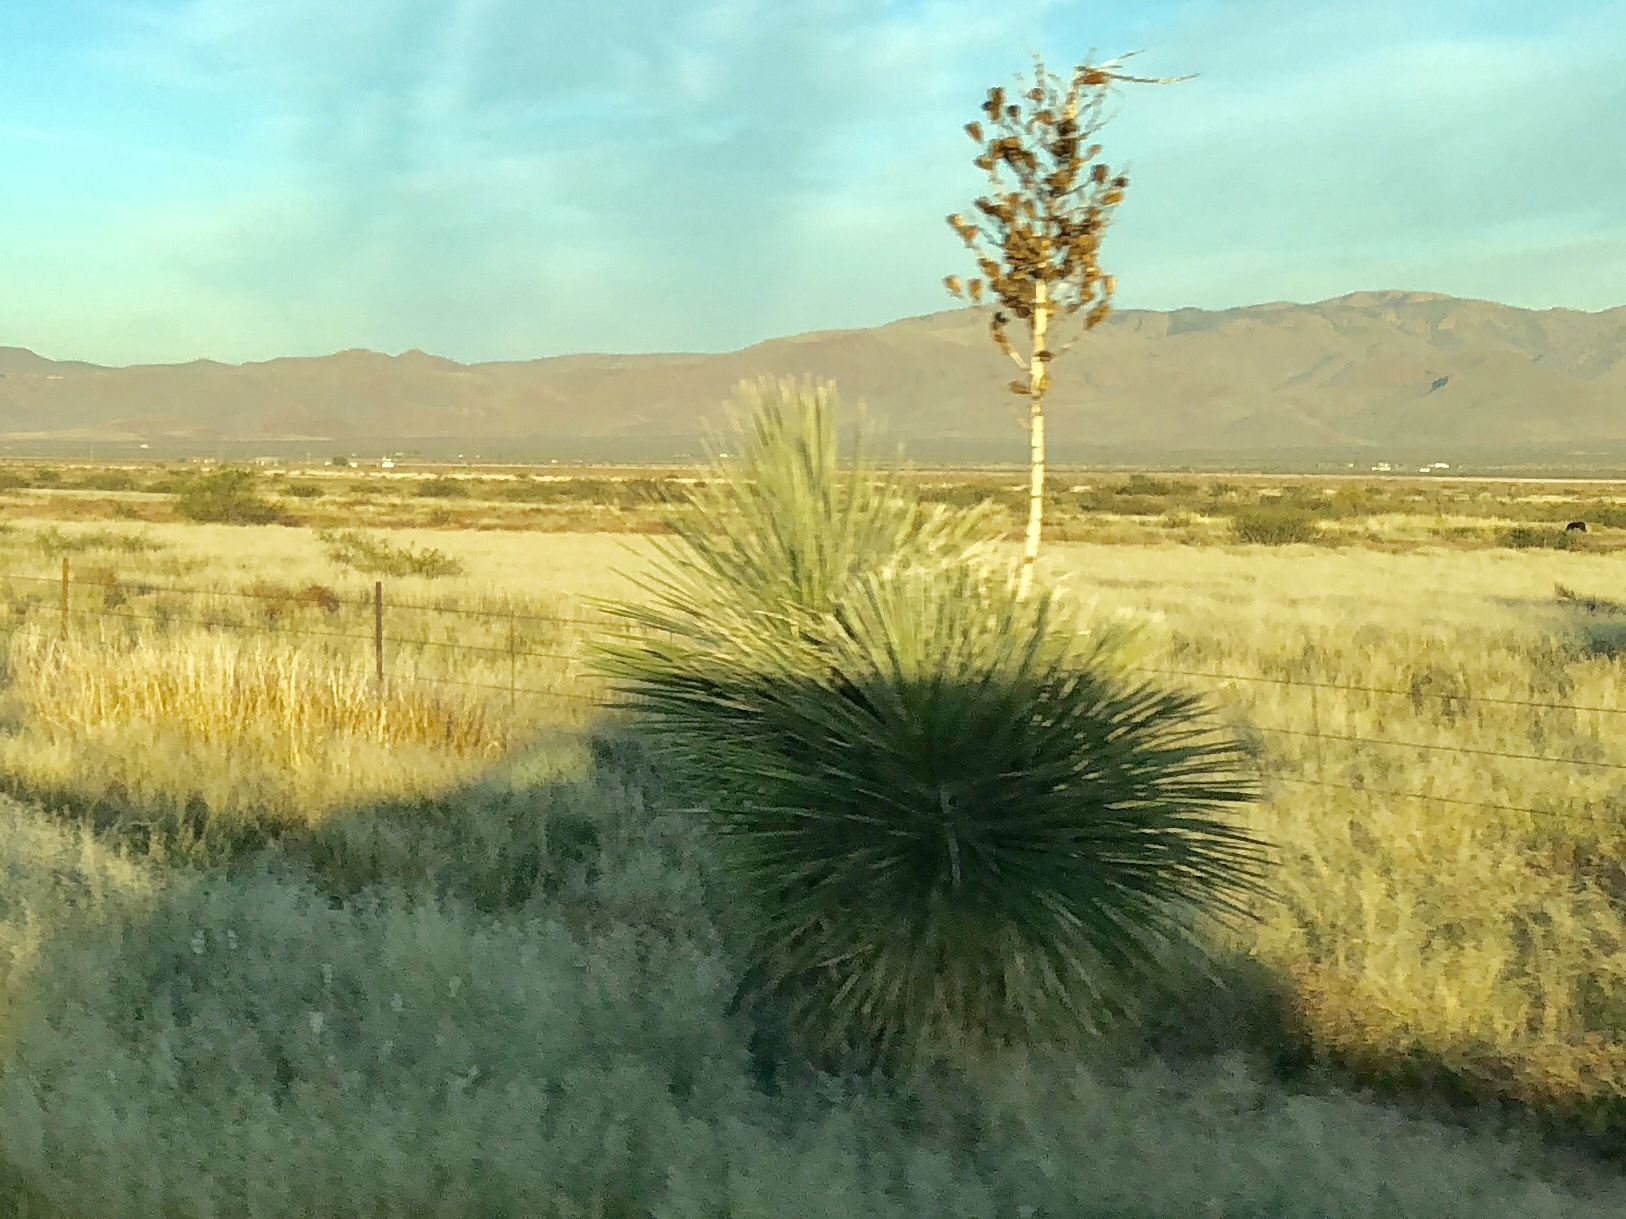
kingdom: Plantae
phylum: Tracheophyta
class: Liliopsida
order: Asparagales
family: Asparagaceae
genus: Yucca
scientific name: Yucca elata
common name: Palmella
